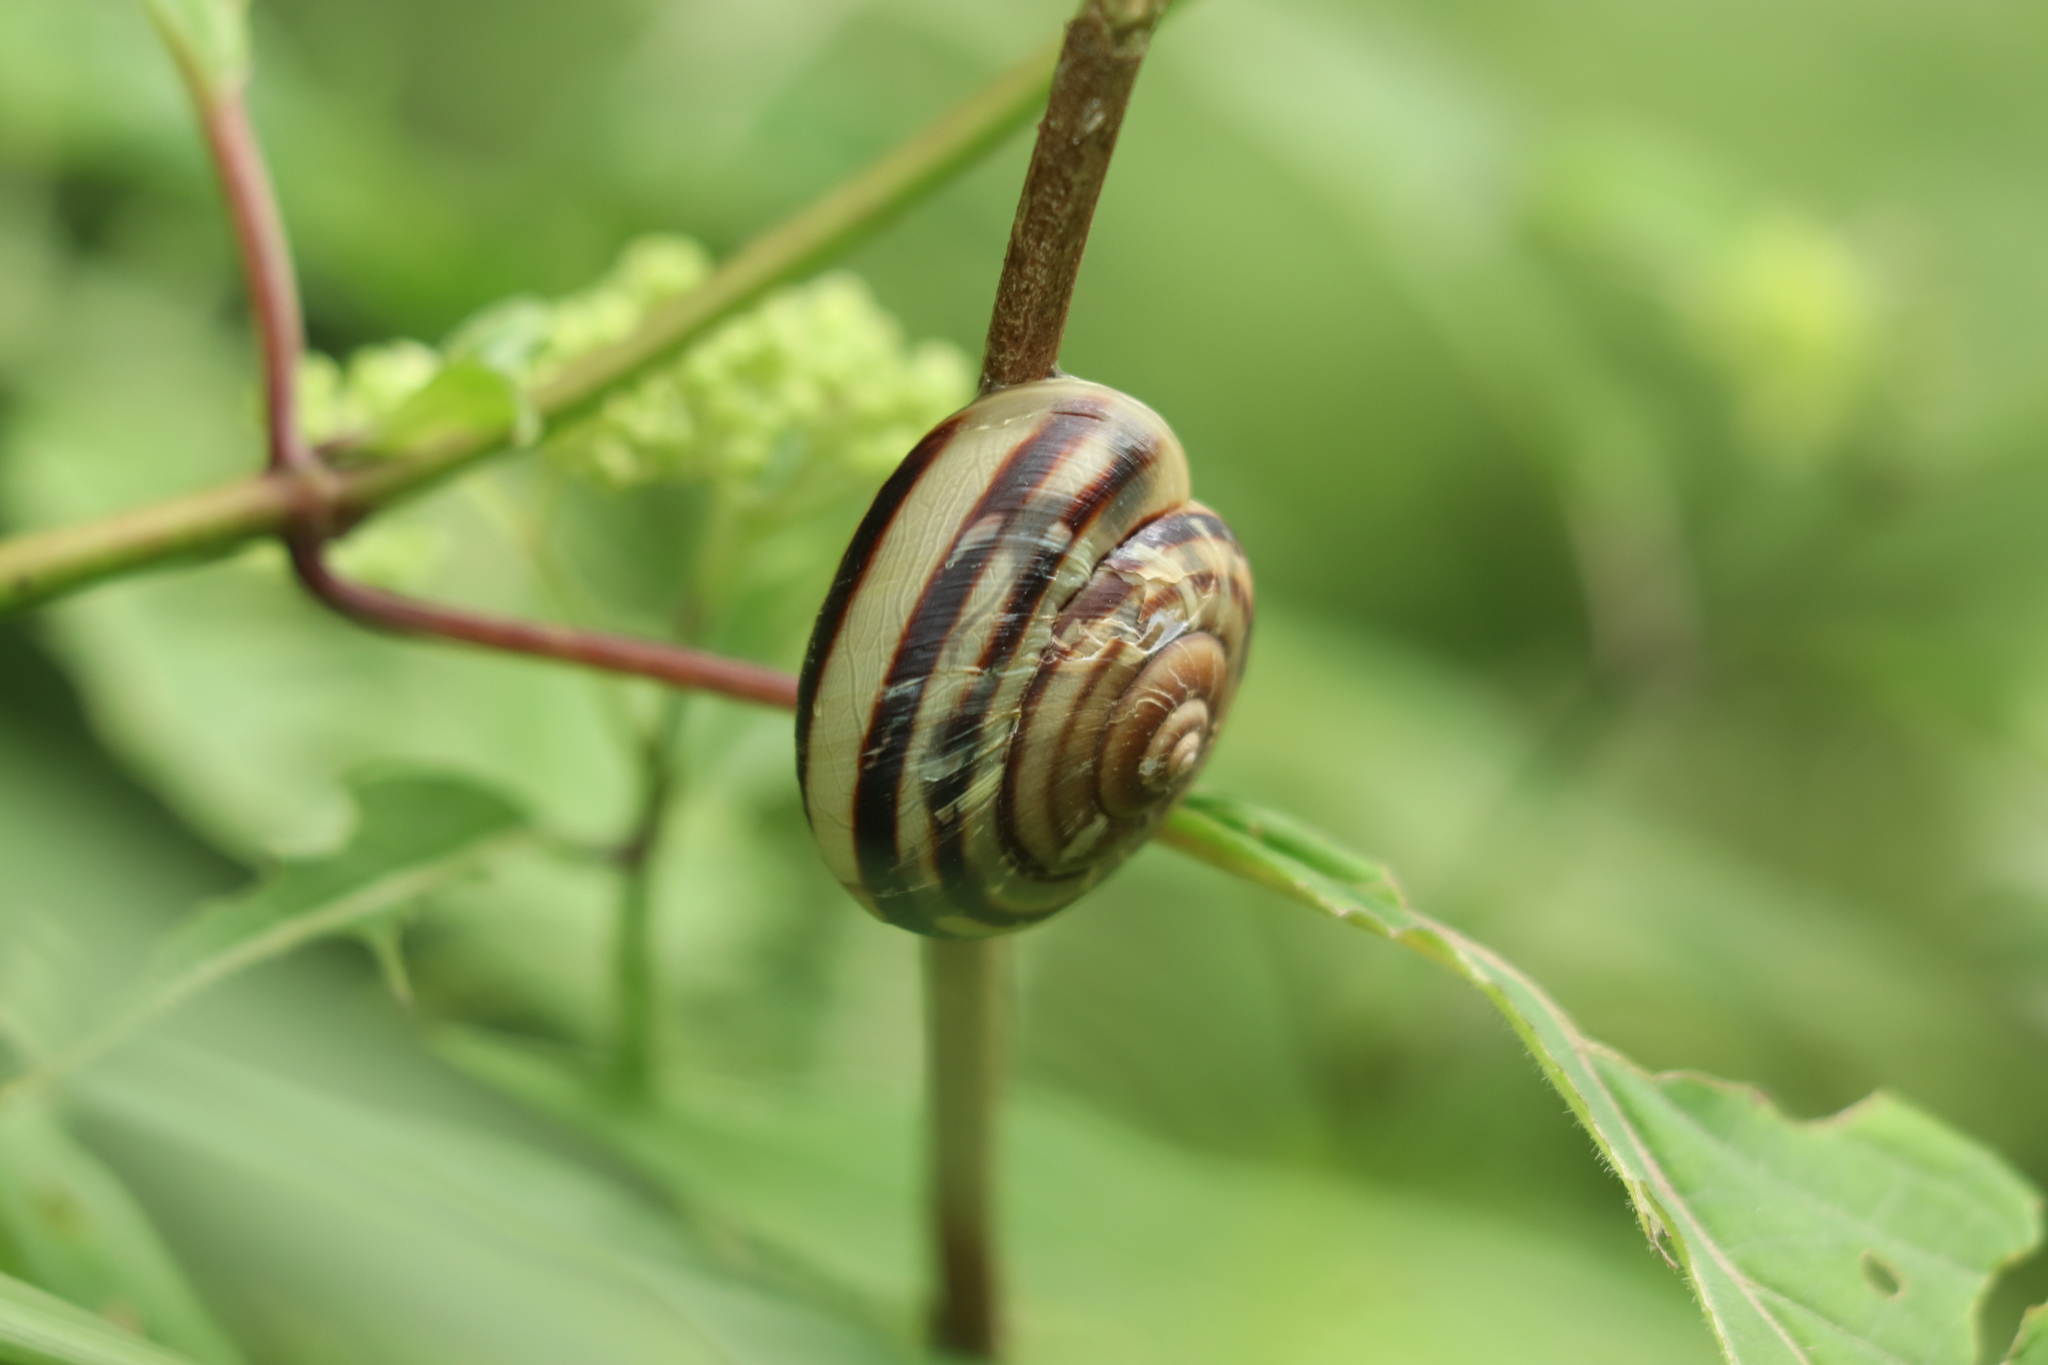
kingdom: Animalia
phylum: Mollusca
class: Gastropoda
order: Stylommatophora
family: Camaenidae
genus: Euhadra
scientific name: Euhadra peliomphala
